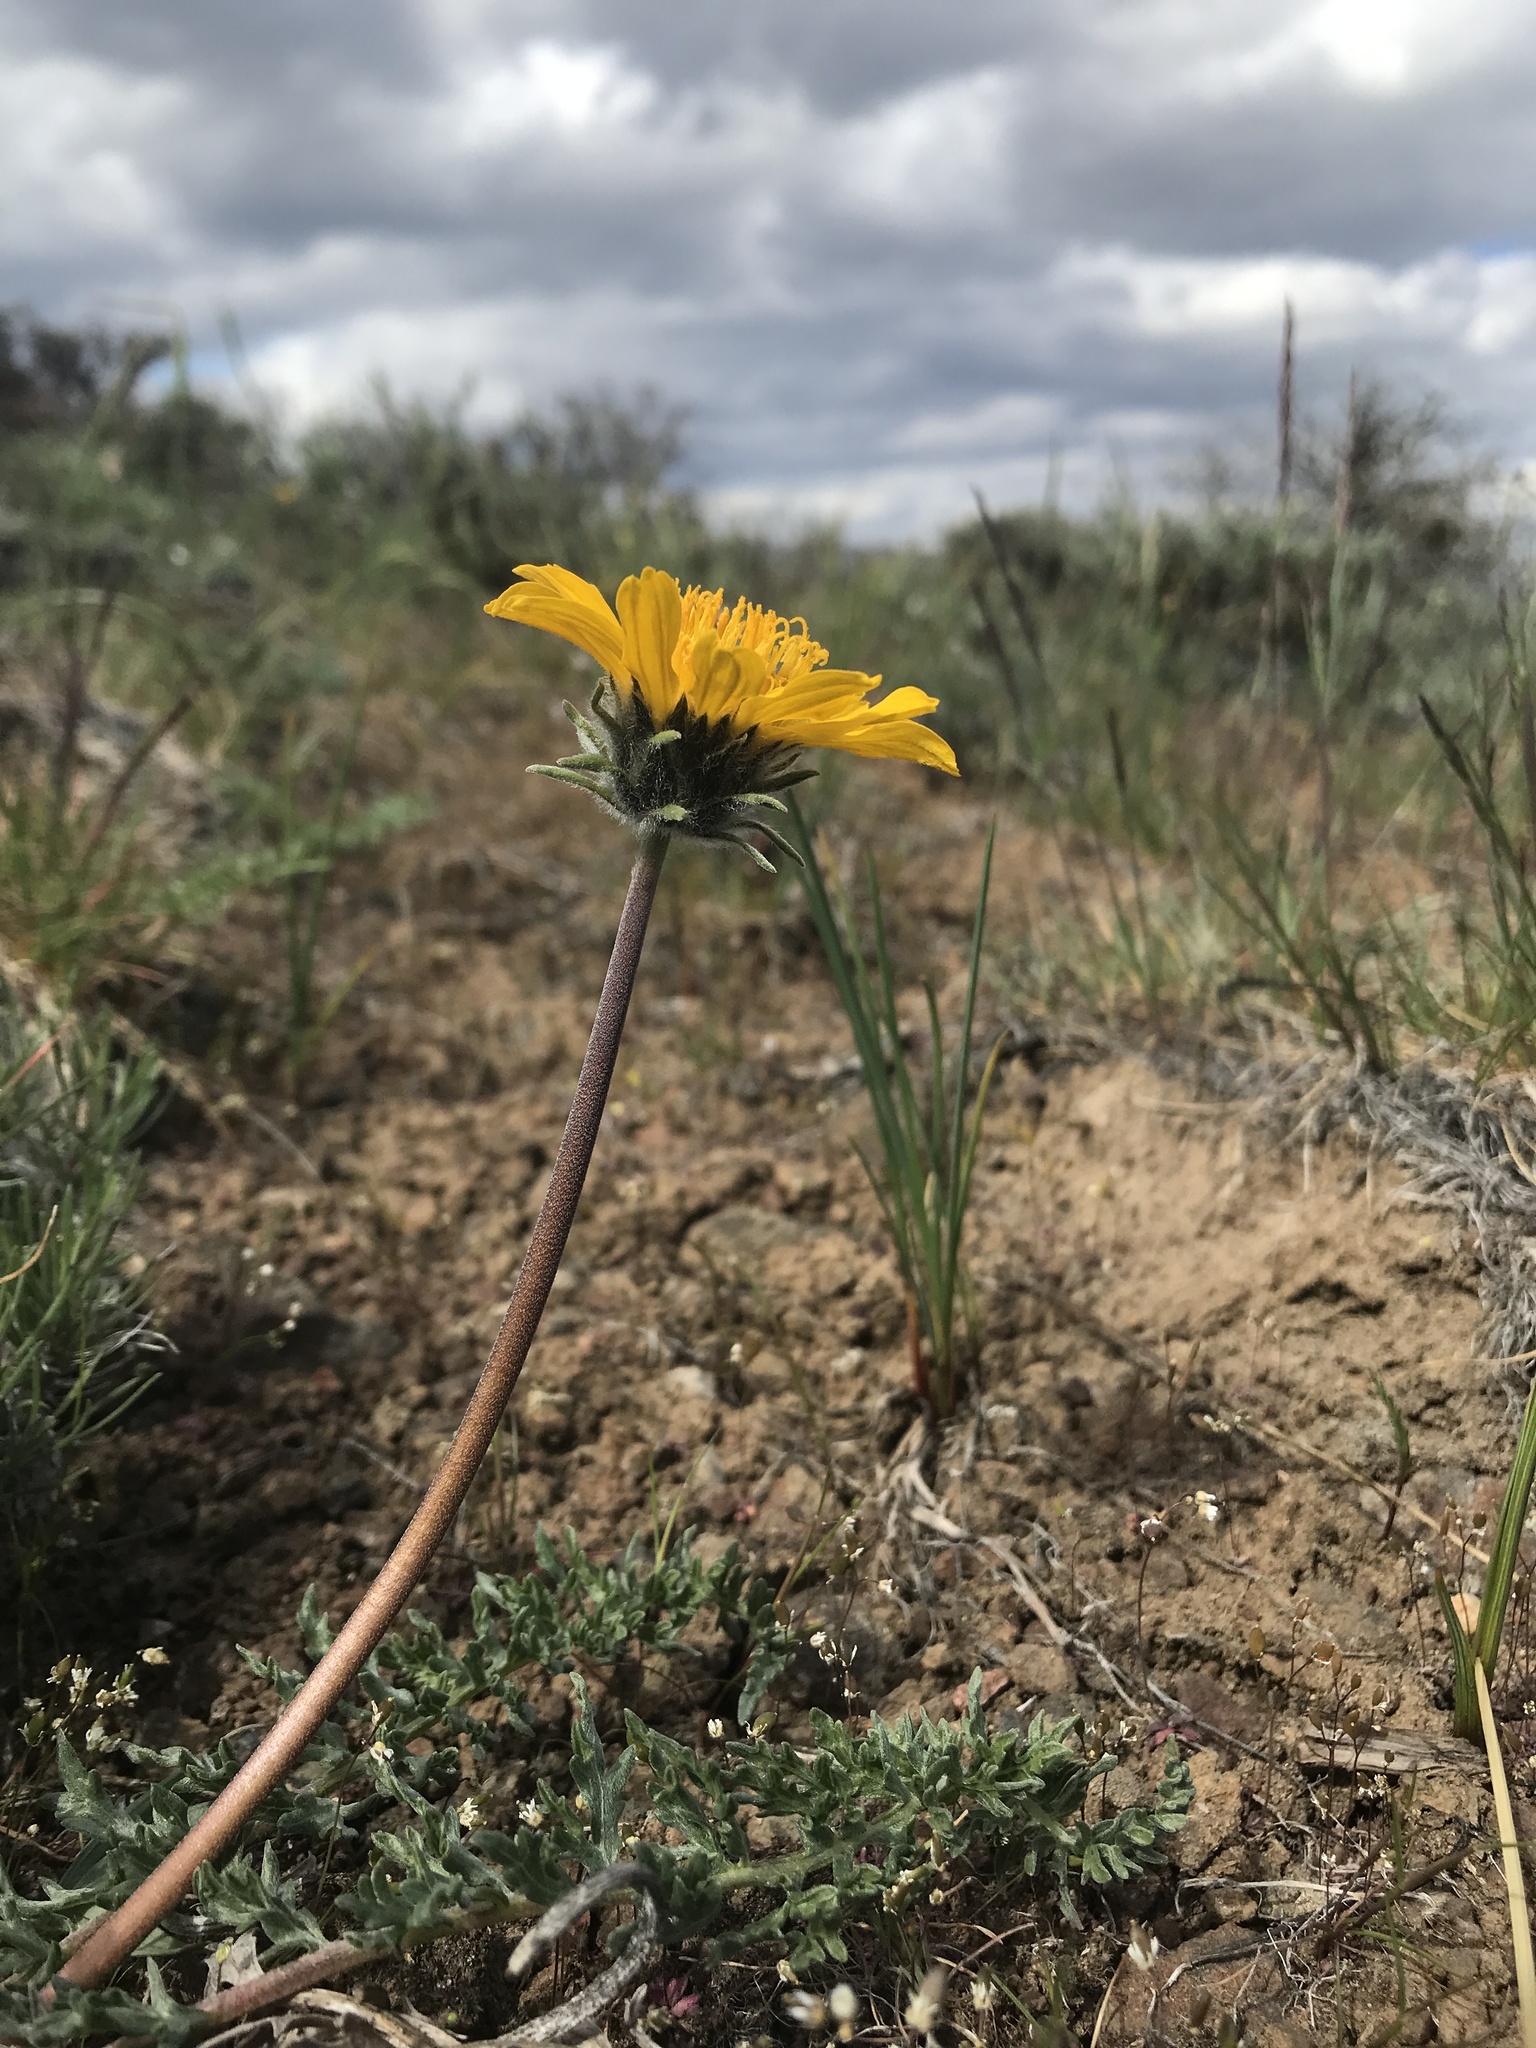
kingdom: Plantae
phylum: Tracheophyta
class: Magnoliopsida
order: Asterales
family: Asteraceae
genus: Balsamorhiza
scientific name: Balsamorhiza hookeri
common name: Hooker's balsamroot
